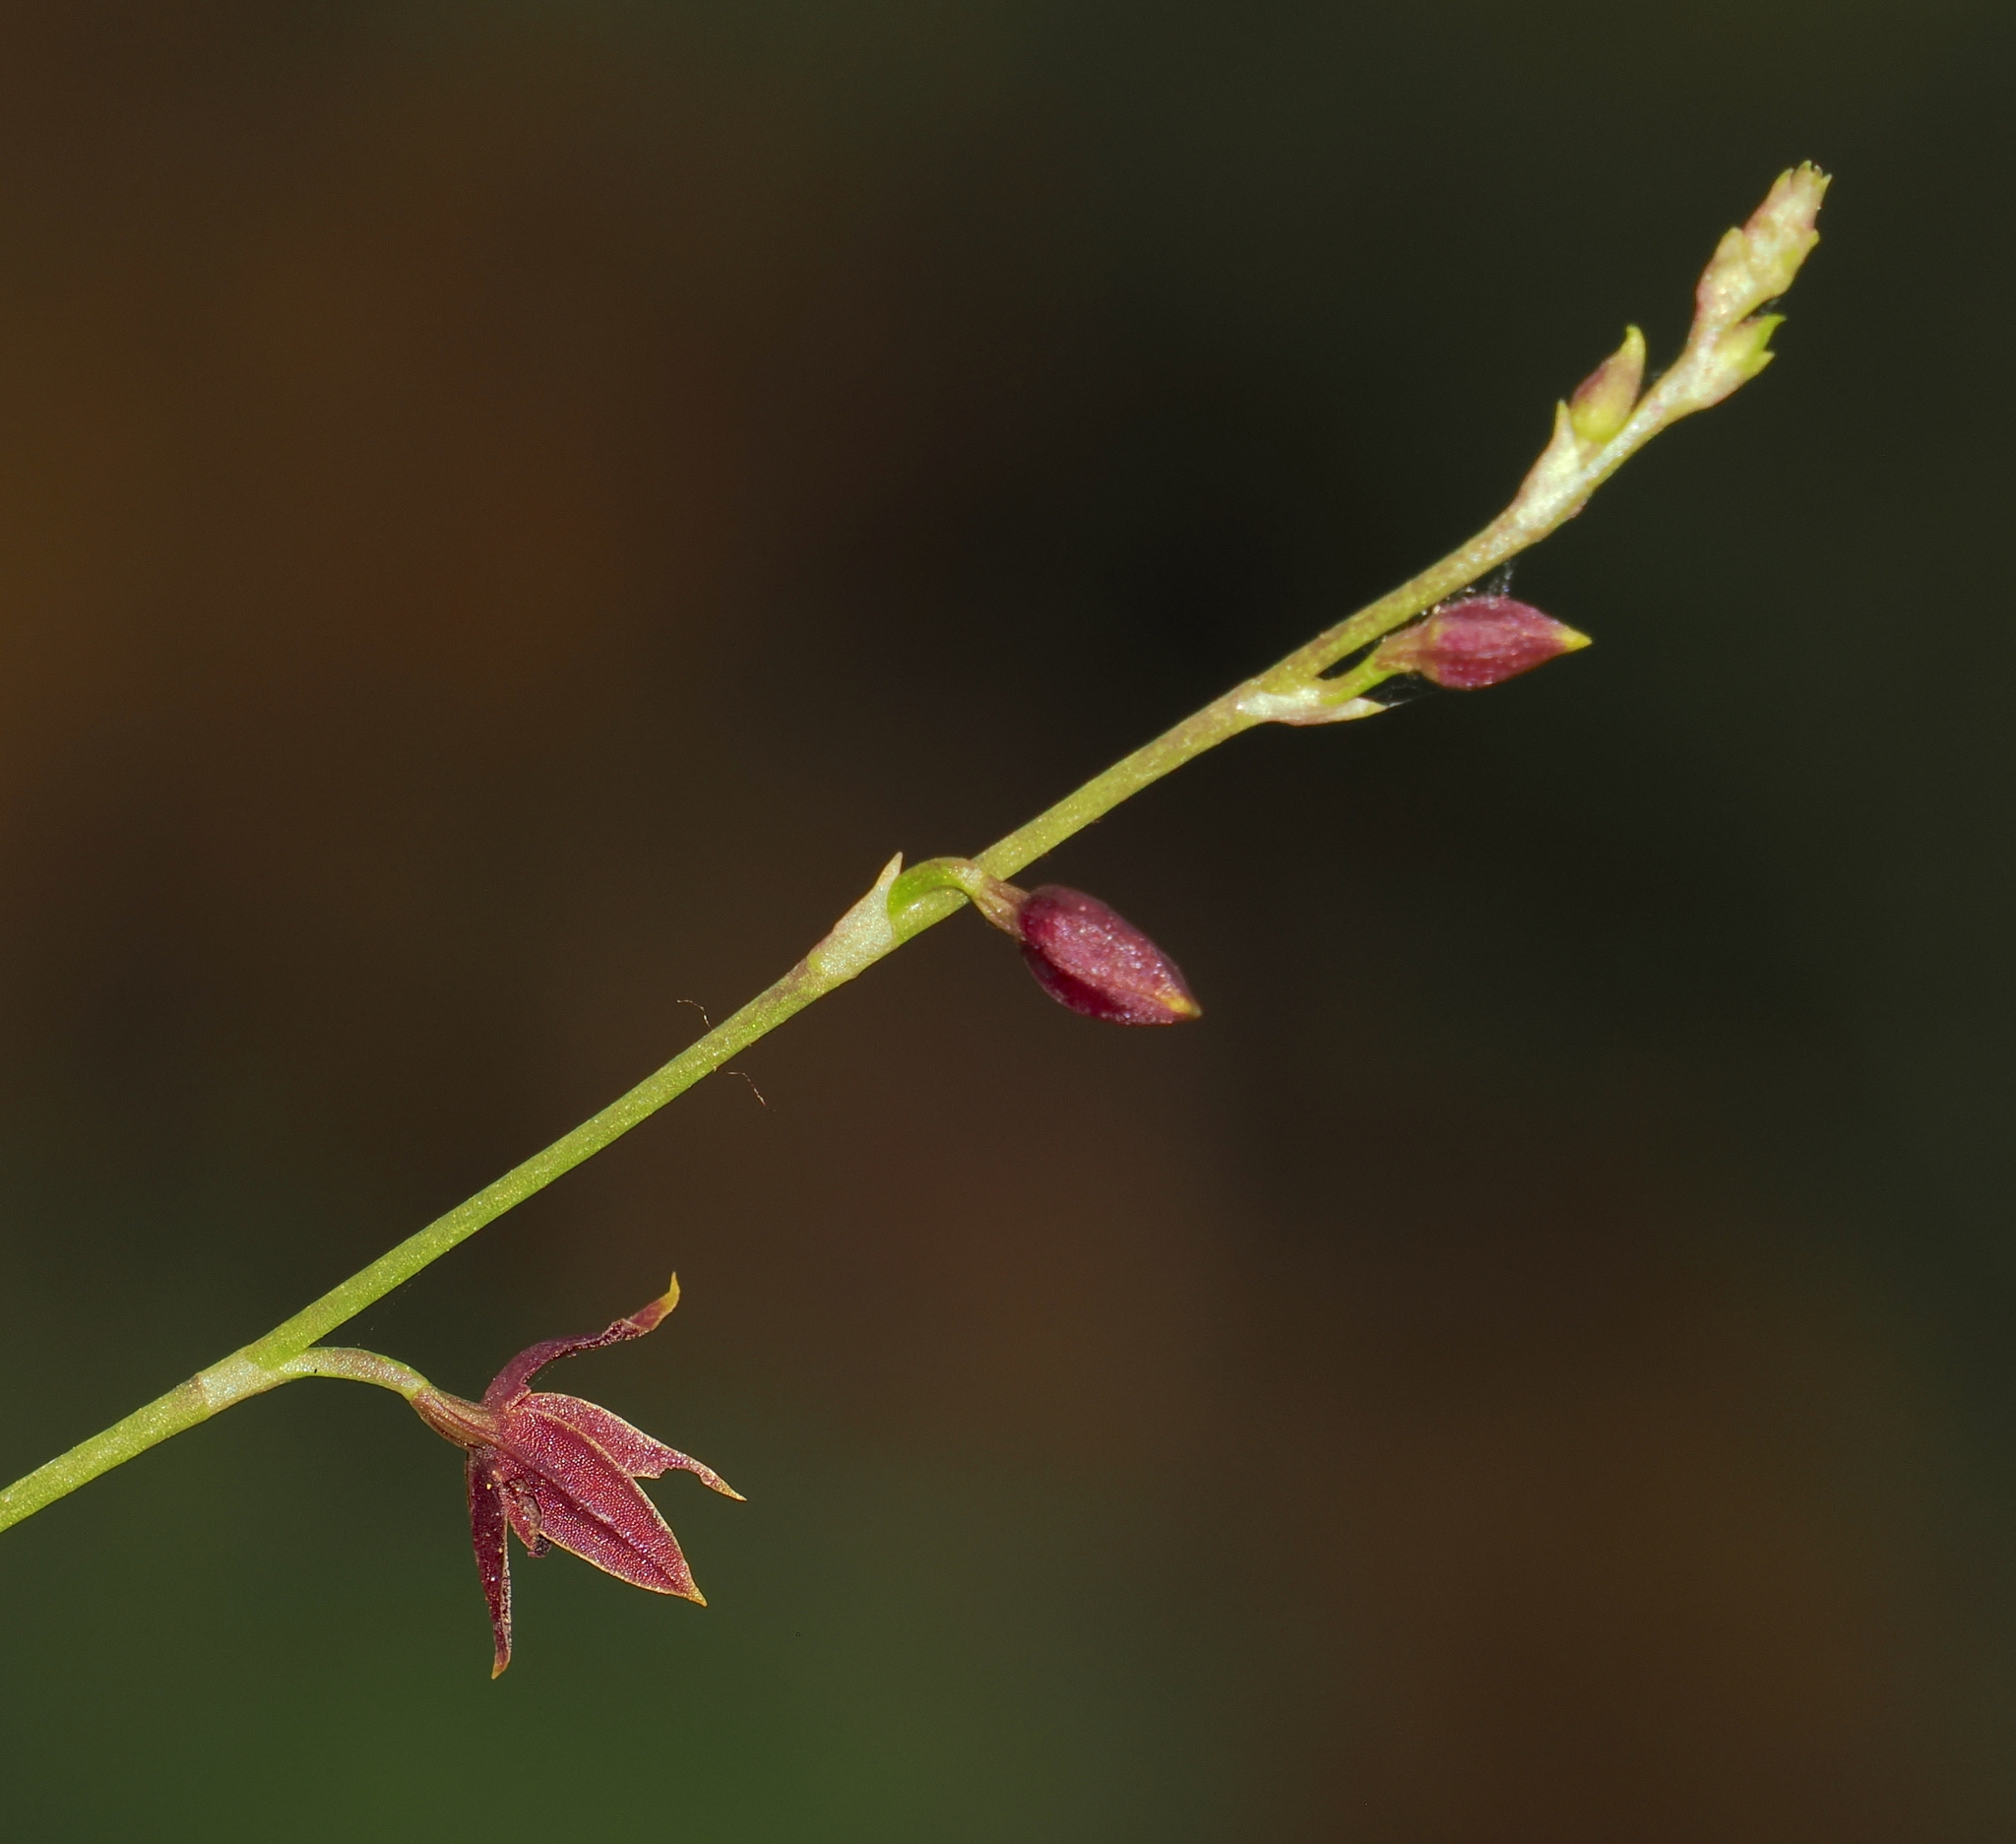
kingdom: Plantae
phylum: Tracheophyta
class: Liliopsida
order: Asparagales
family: Orchidaceae
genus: Platystele
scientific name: Platystele consobrina
